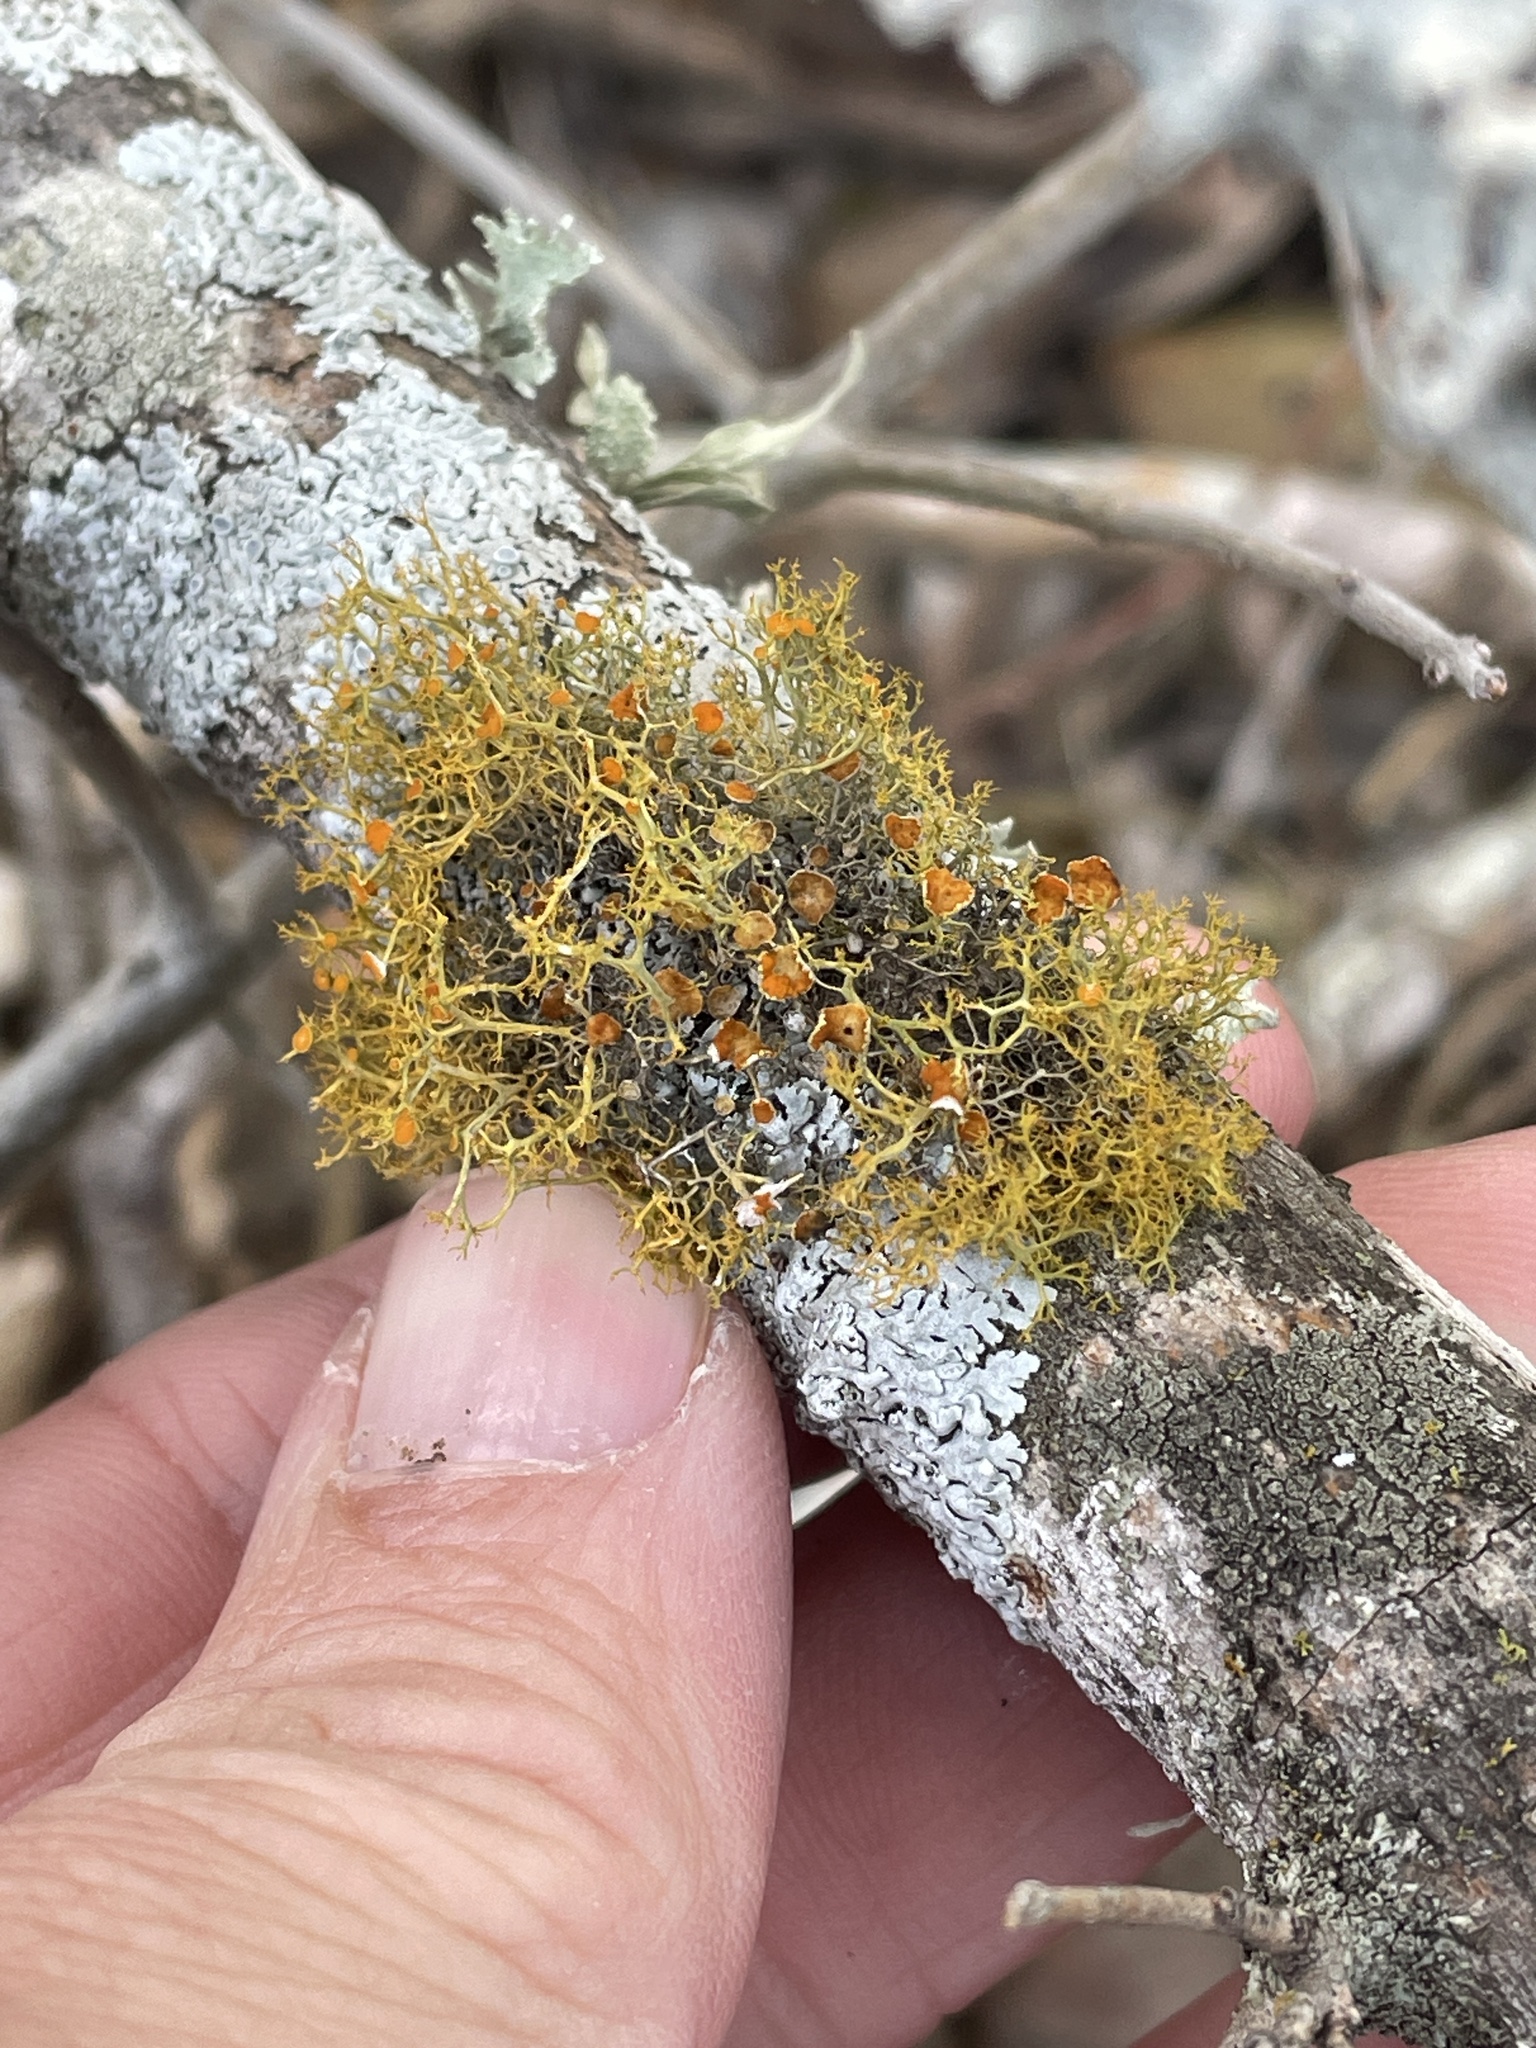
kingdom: Fungi
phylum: Ascomycota
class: Lecanoromycetes
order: Teloschistales
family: Teloschistaceae
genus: Teloschistes
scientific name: Teloschistes exilis
